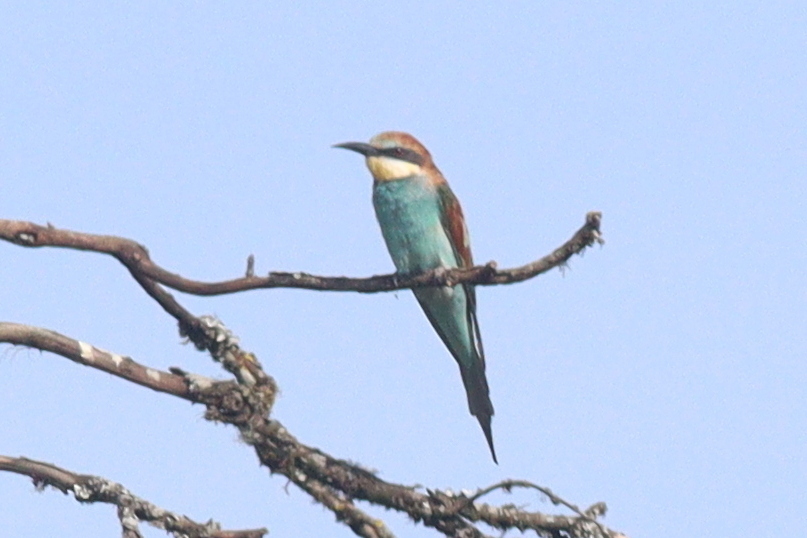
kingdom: Animalia
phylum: Chordata
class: Aves
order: Coraciiformes
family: Meropidae
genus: Merops
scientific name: Merops apiaster
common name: European bee-eater
